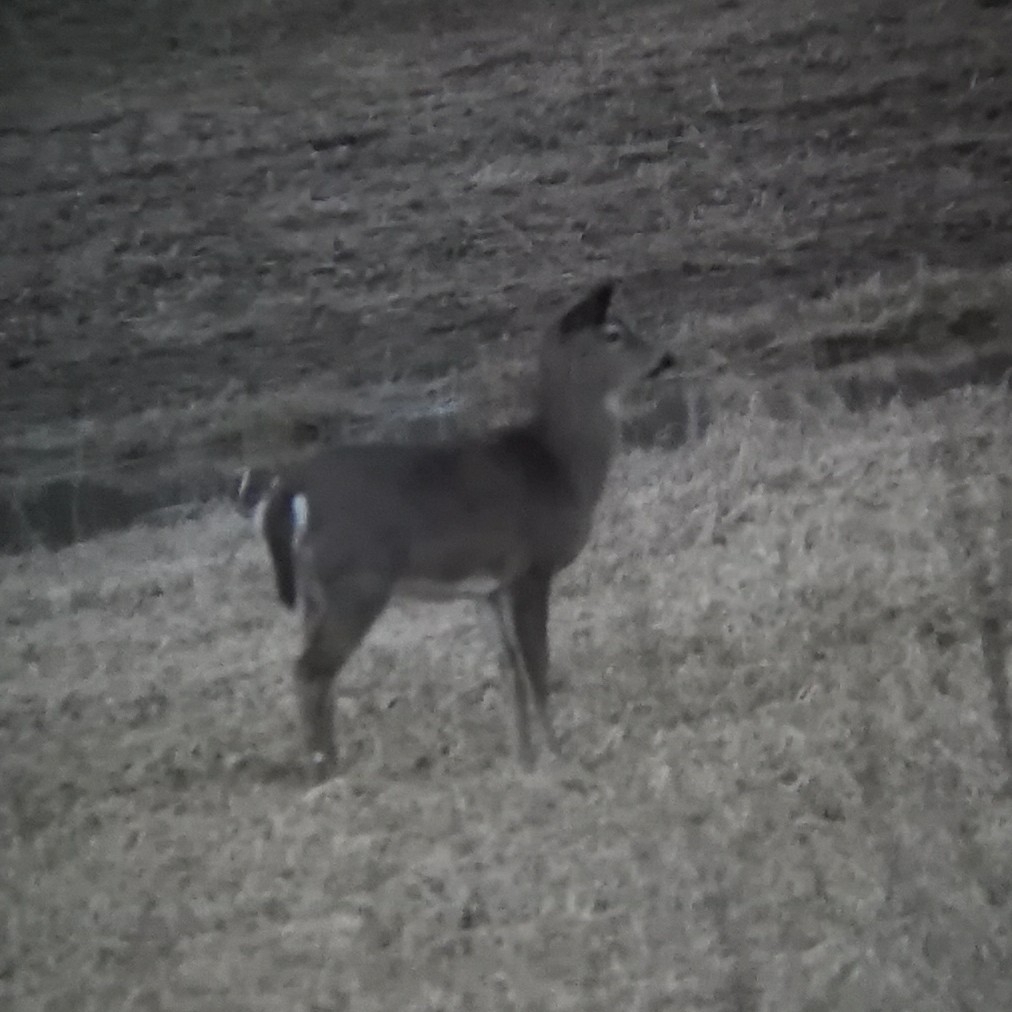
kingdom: Animalia
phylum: Chordata
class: Mammalia
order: Artiodactyla
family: Cervidae
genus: Odocoileus
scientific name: Odocoileus virginianus
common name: White-tailed deer
